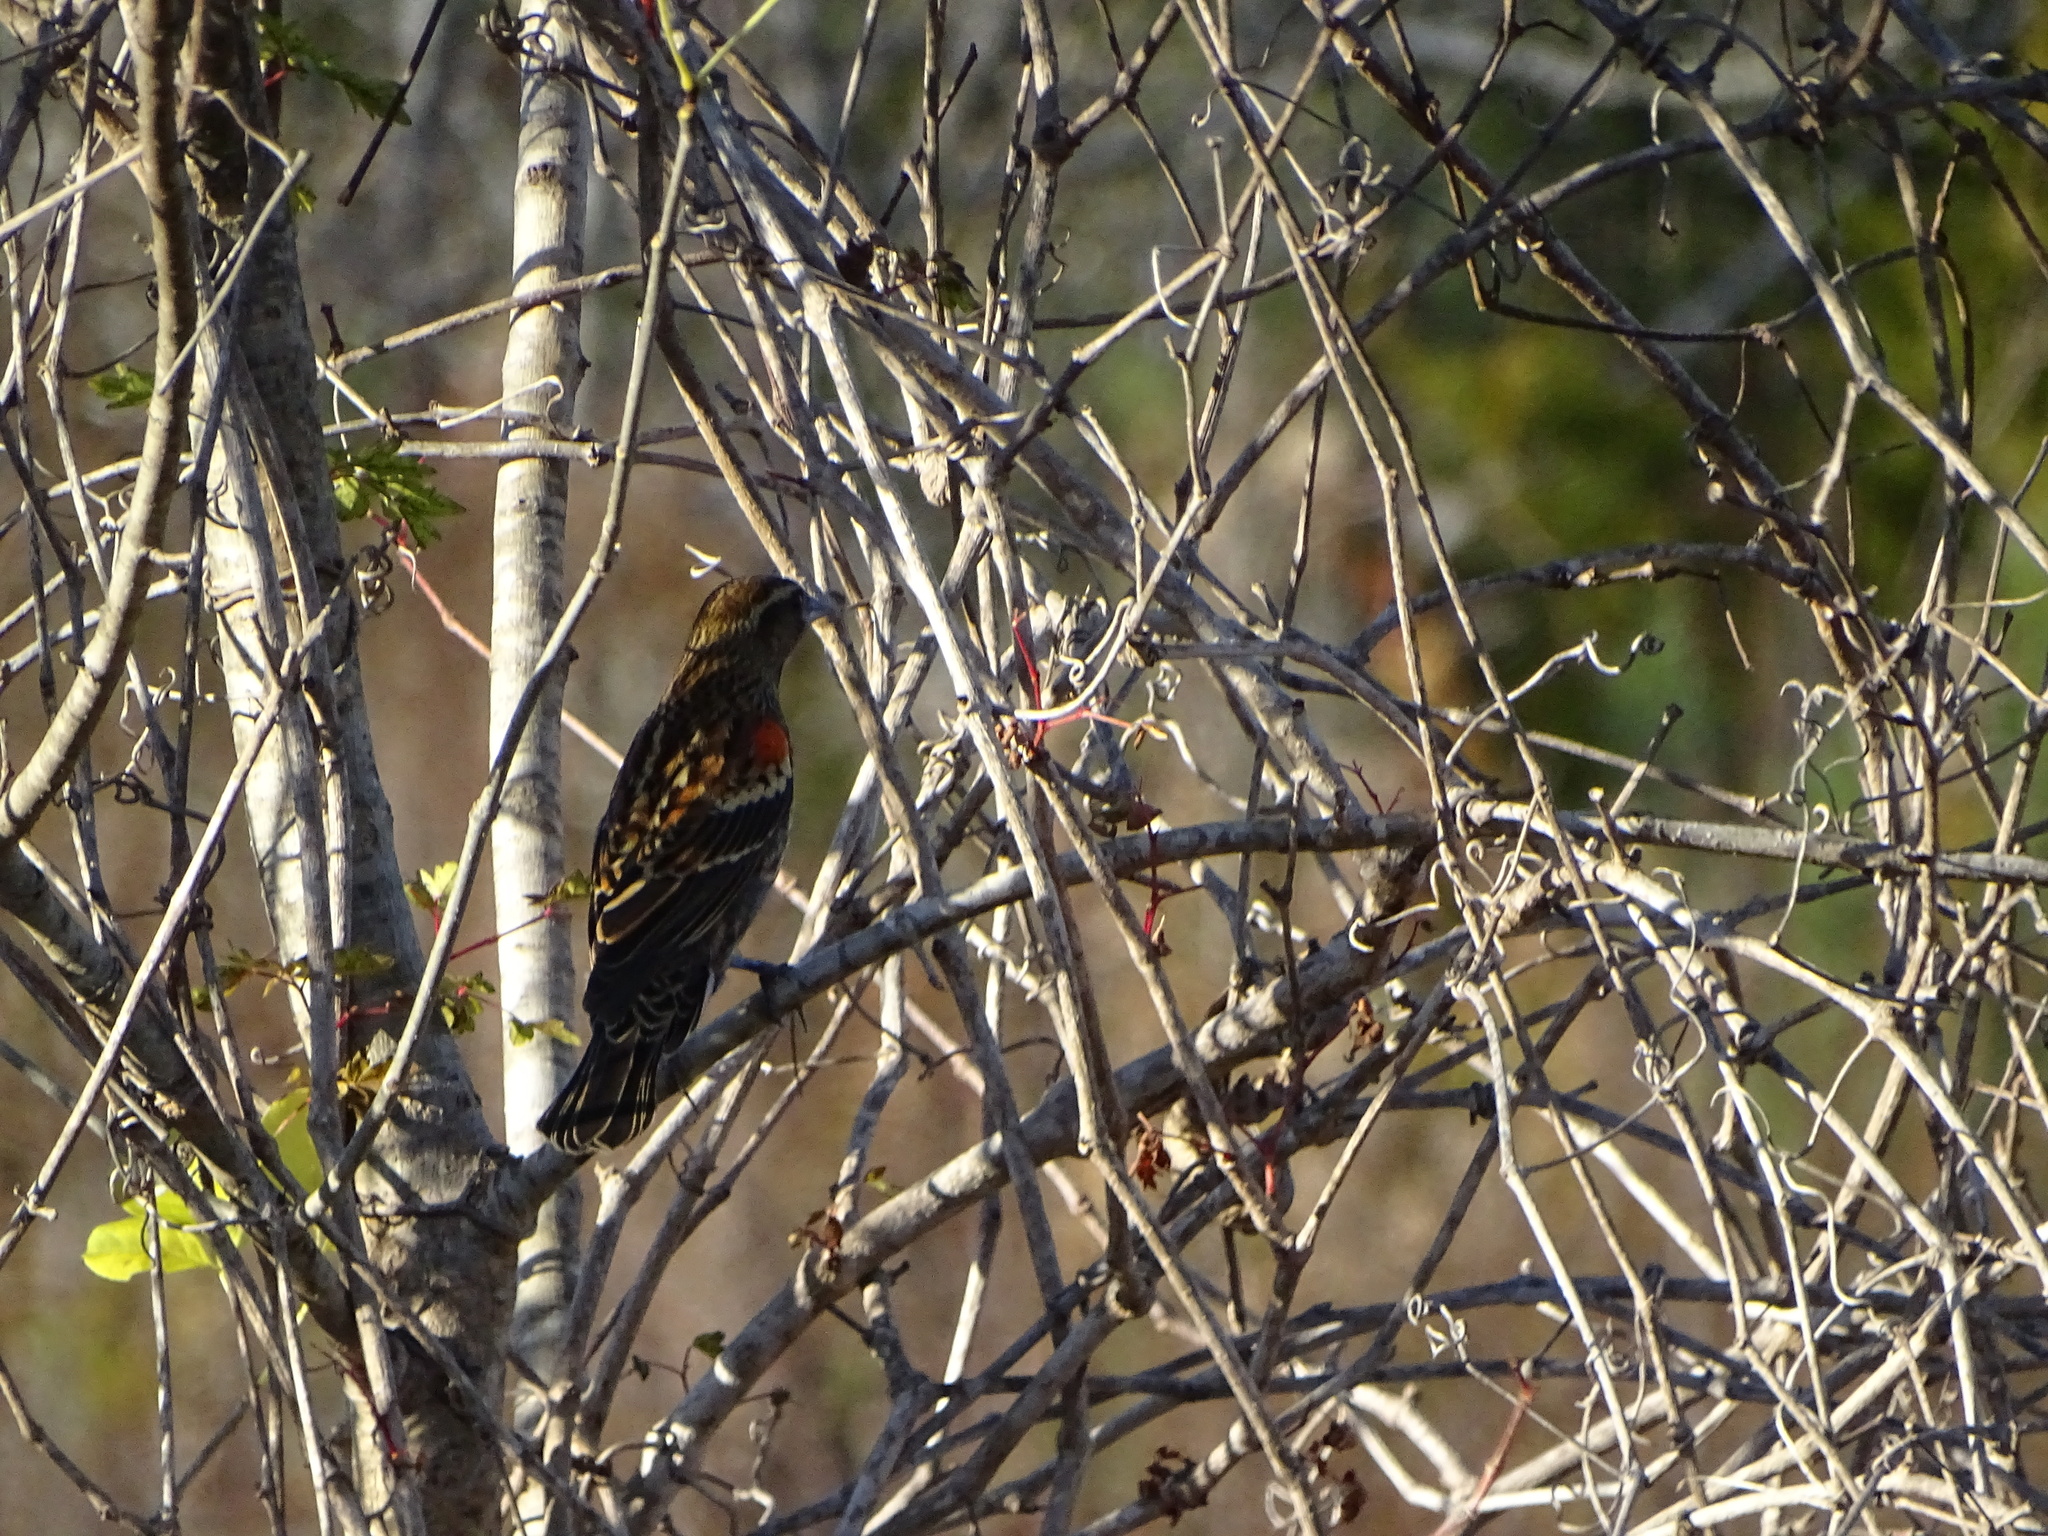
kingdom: Animalia
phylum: Chordata
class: Aves
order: Passeriformes
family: Icteridae
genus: Agelaius
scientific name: Agelaius phoeniceus
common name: Red-winged blackbird
